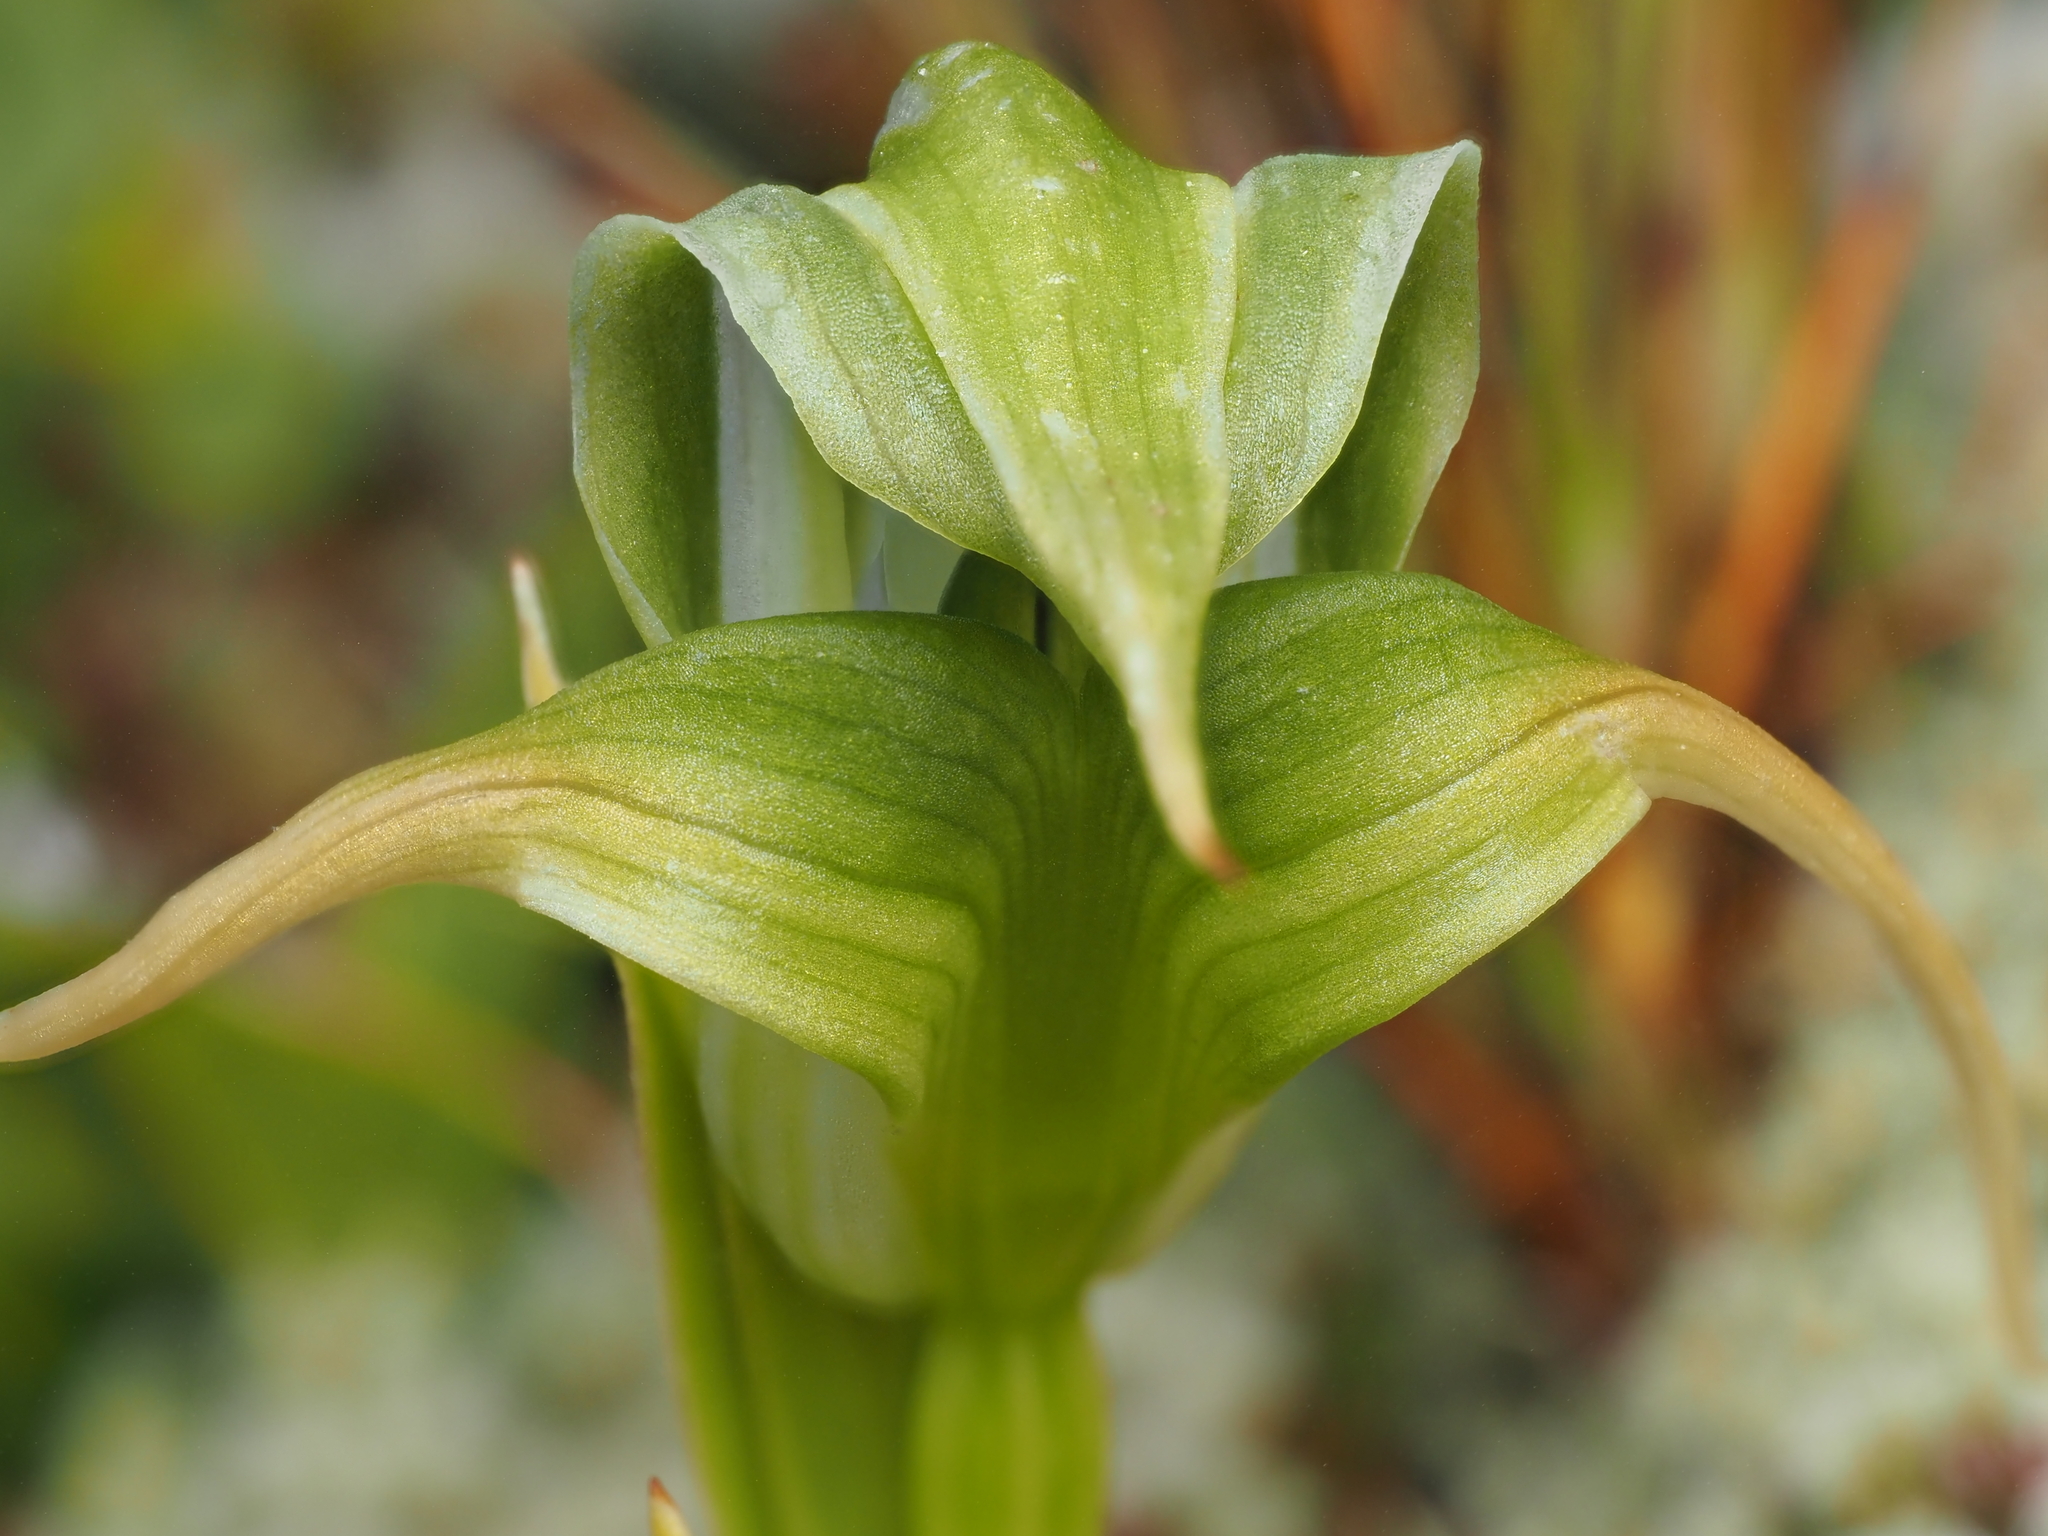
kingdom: Plantae
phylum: Tracheophyta
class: Liliopsida
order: Asparagales
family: Orchidaceae
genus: Pterostylis
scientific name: Pterostylis patens
